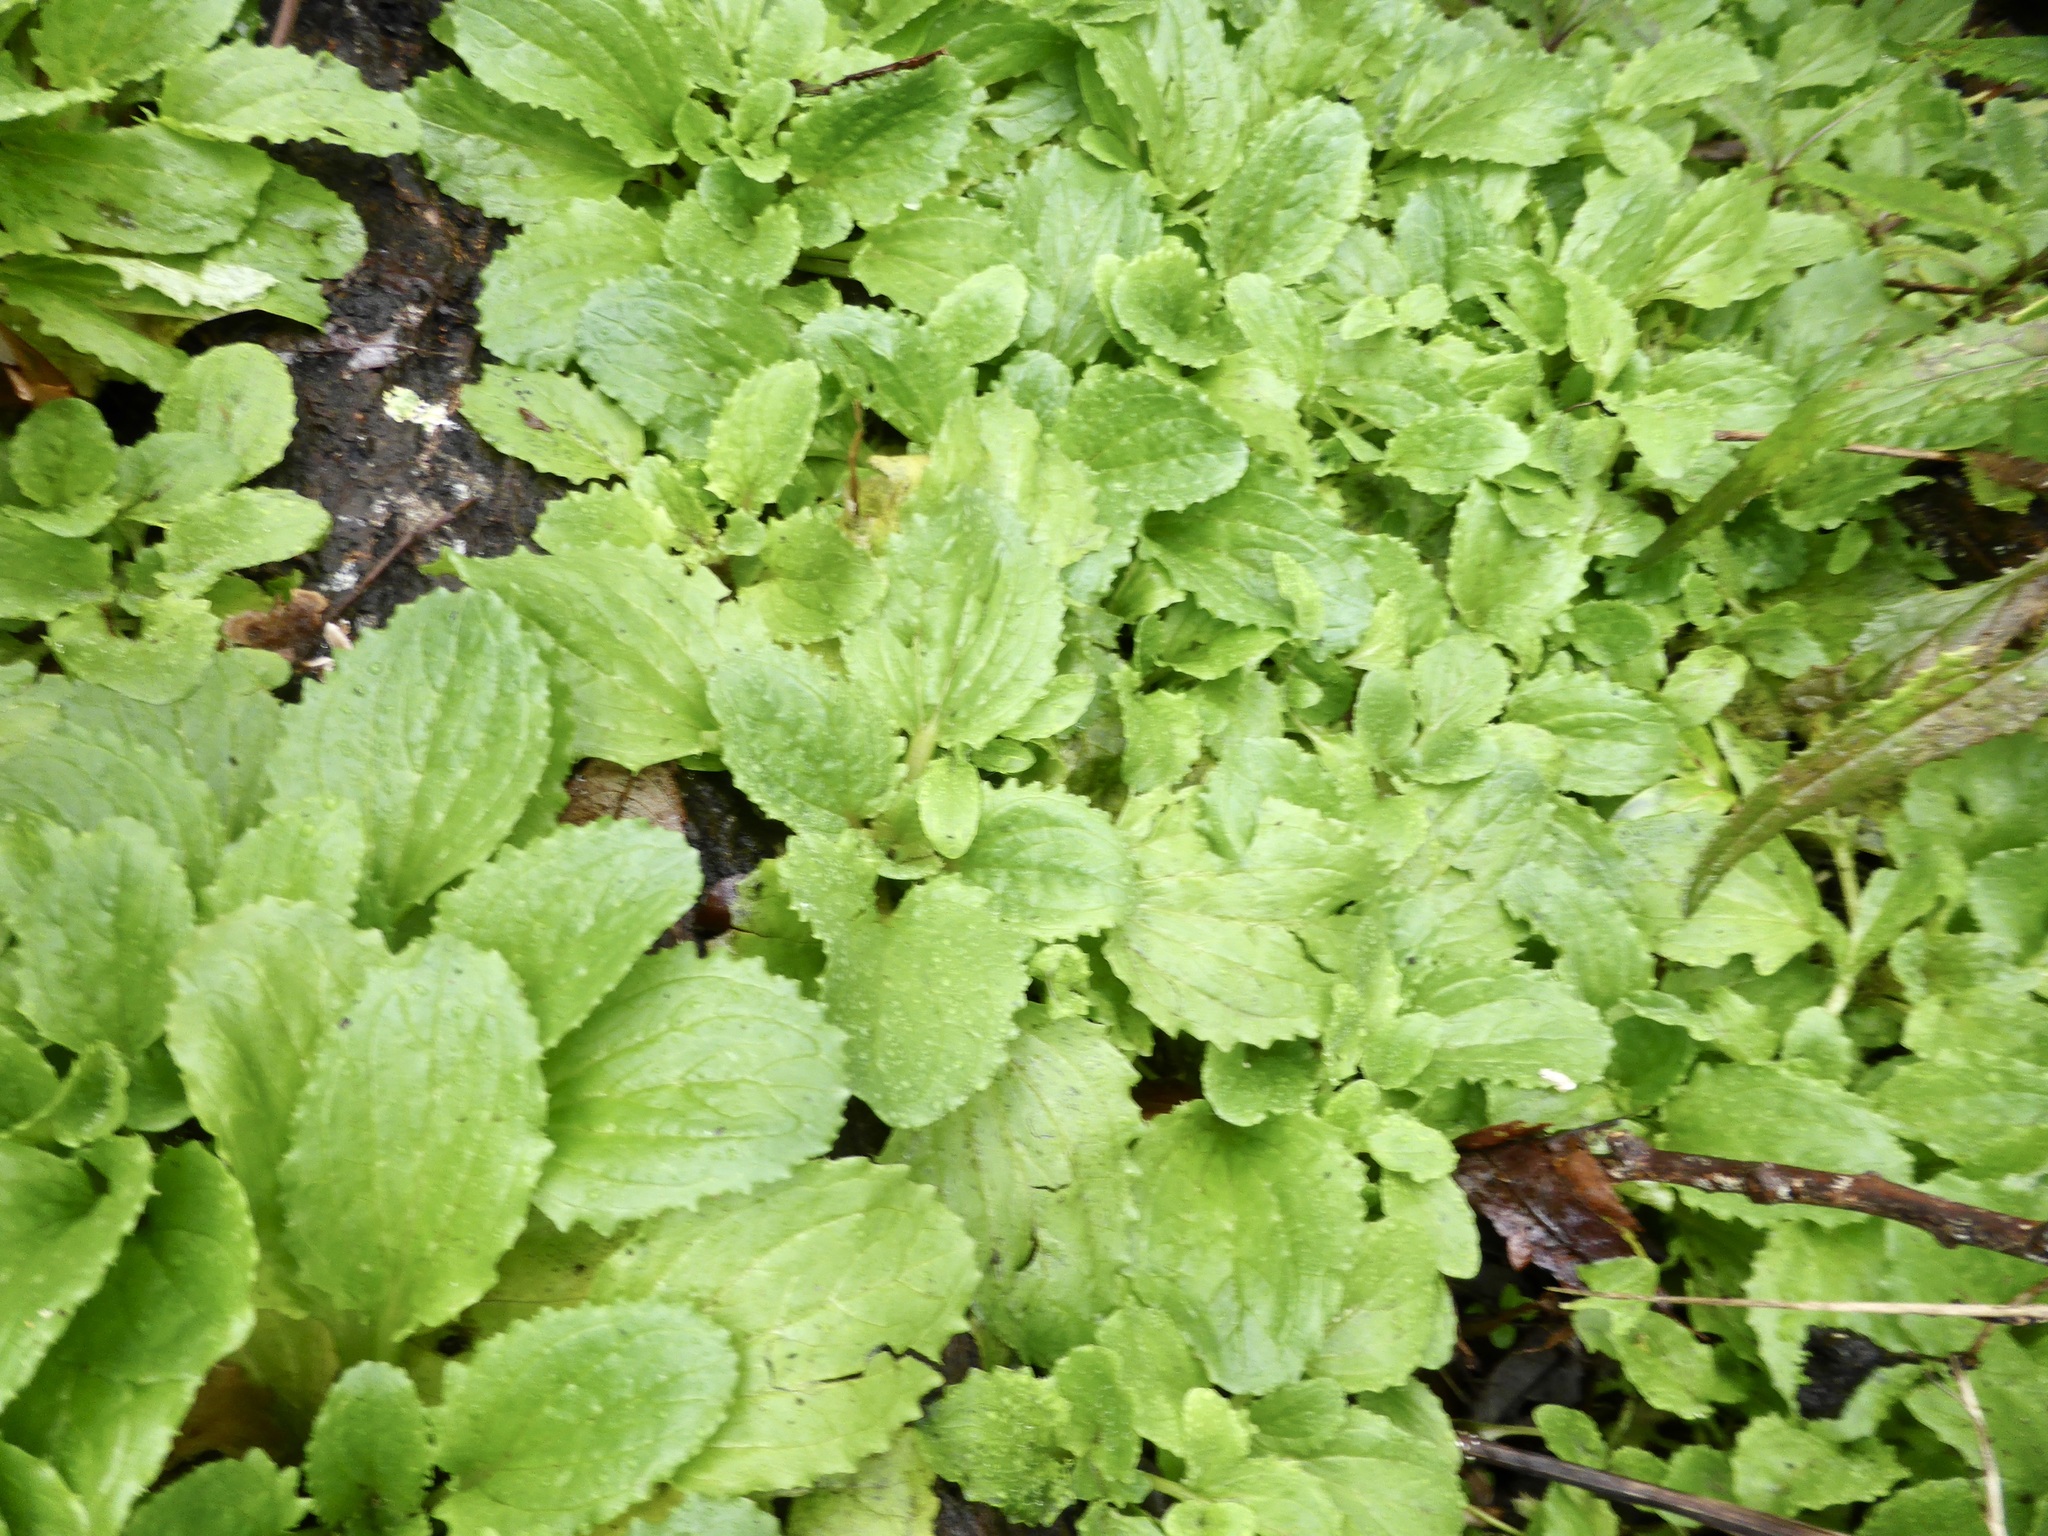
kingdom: Plantae
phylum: Tracheophyta
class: Magnoliopsida
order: Lamiales
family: Phrymaceae
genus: Erythranthe
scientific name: Erythranthe guttata
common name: Monkeyflower
